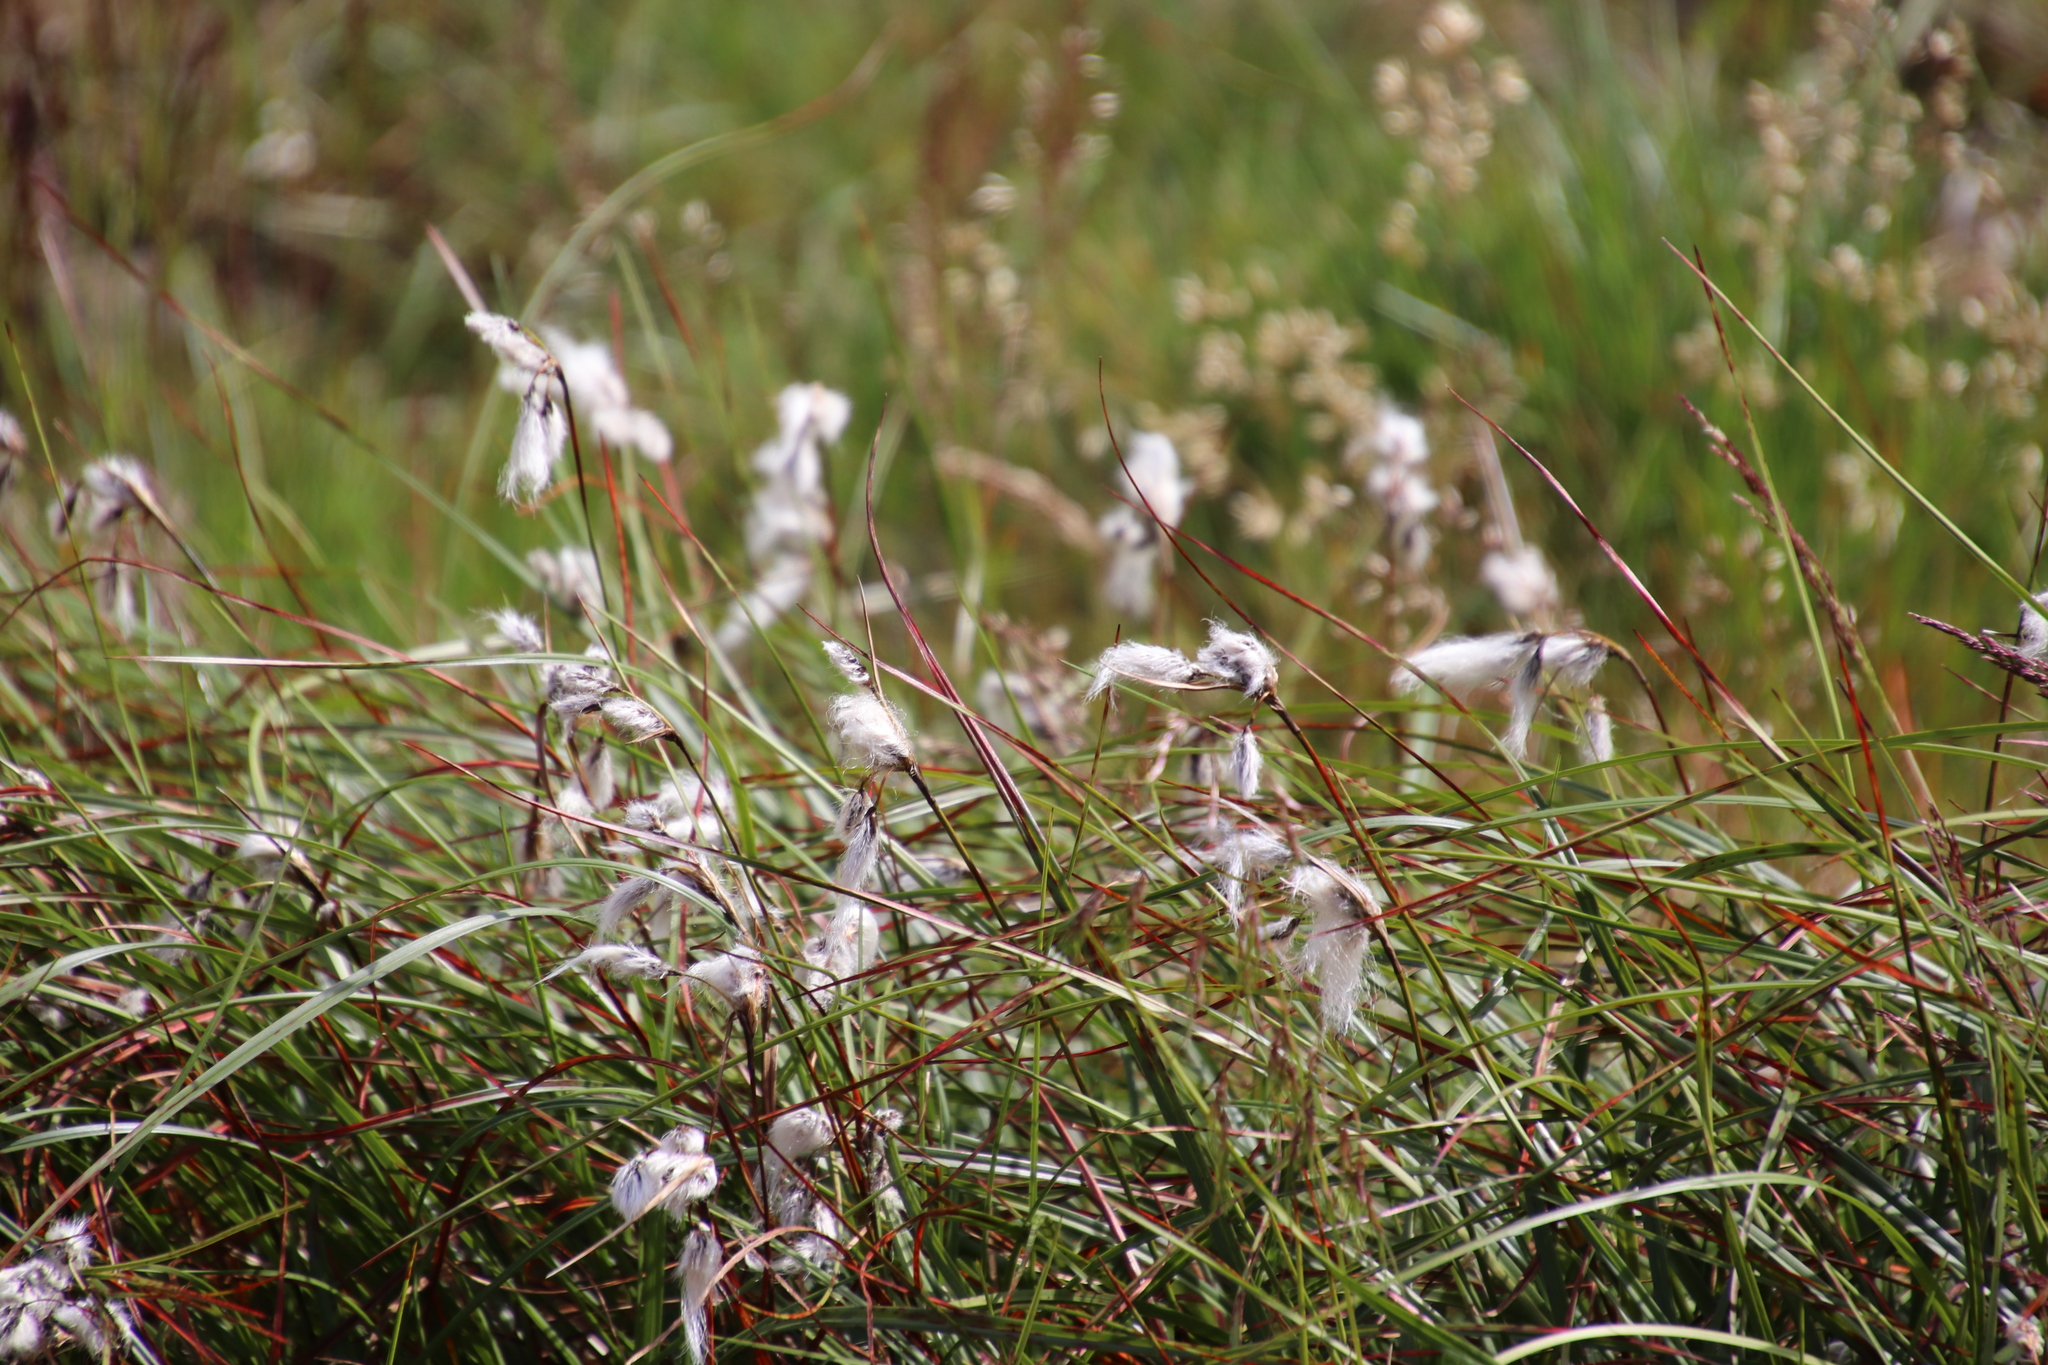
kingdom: Plantae
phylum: Tracheophyta
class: Liliopsida
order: Poales
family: Cyperaceae
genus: Eriophorum
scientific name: Eriophorum angustifolium
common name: Common cottongrass
